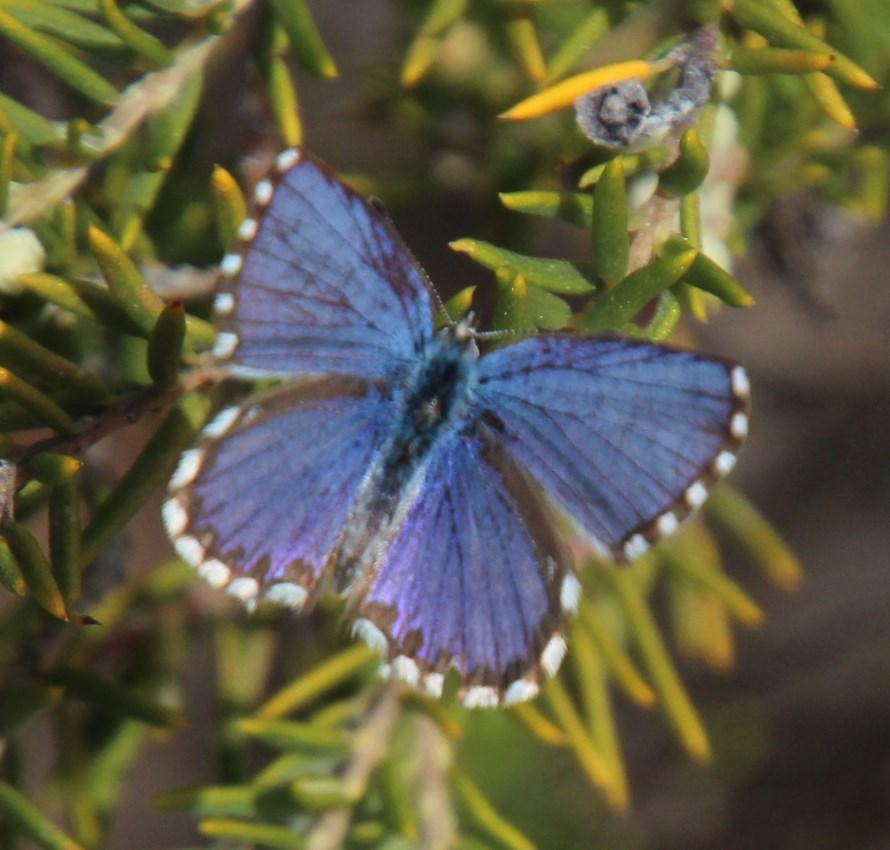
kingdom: Animalia
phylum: Arthropoda
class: Insecta
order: Lepidoptera
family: Lycaenidae
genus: Tarucus
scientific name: Tarucus thespis
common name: Vivid dotted blue
